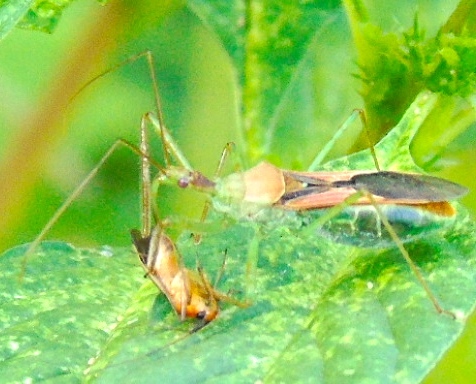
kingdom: Animalia
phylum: Arthropoda
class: Insecta
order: Hemiptera
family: Reduviidae
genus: Zelus
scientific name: Zelus renardii
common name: Assassin bug
